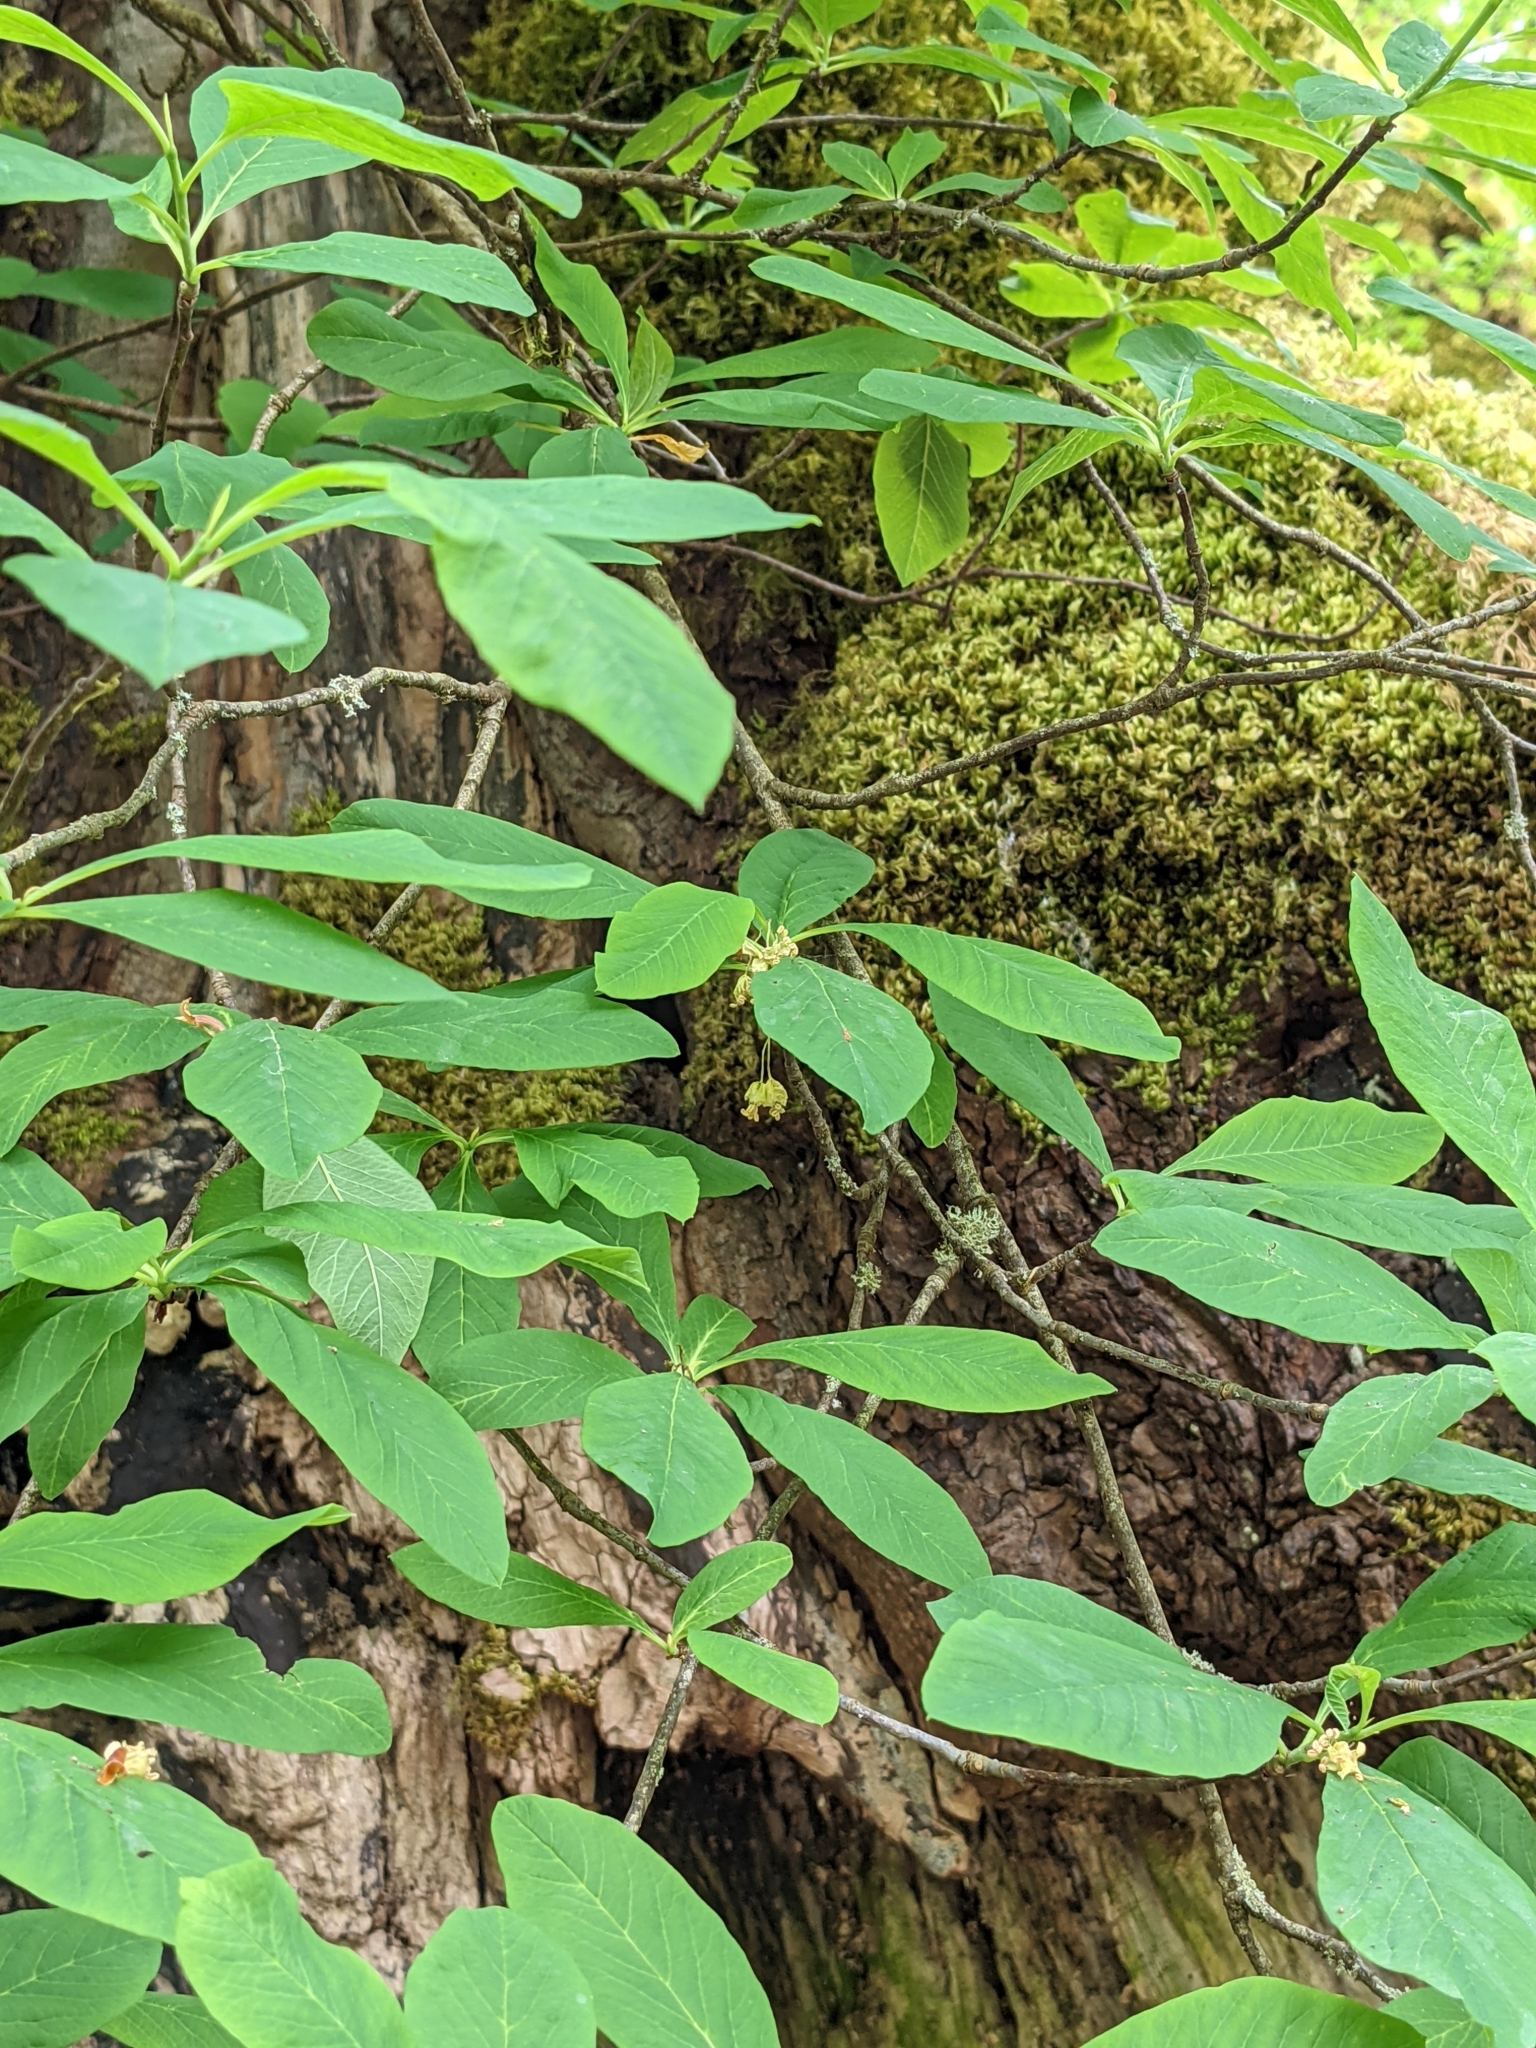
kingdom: Plantae
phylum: Tracheophyta
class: Magnoliopsida
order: Rosales
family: Rosaceae
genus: Oemleria
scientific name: Oemleria cerasiformis
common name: Osoberry
